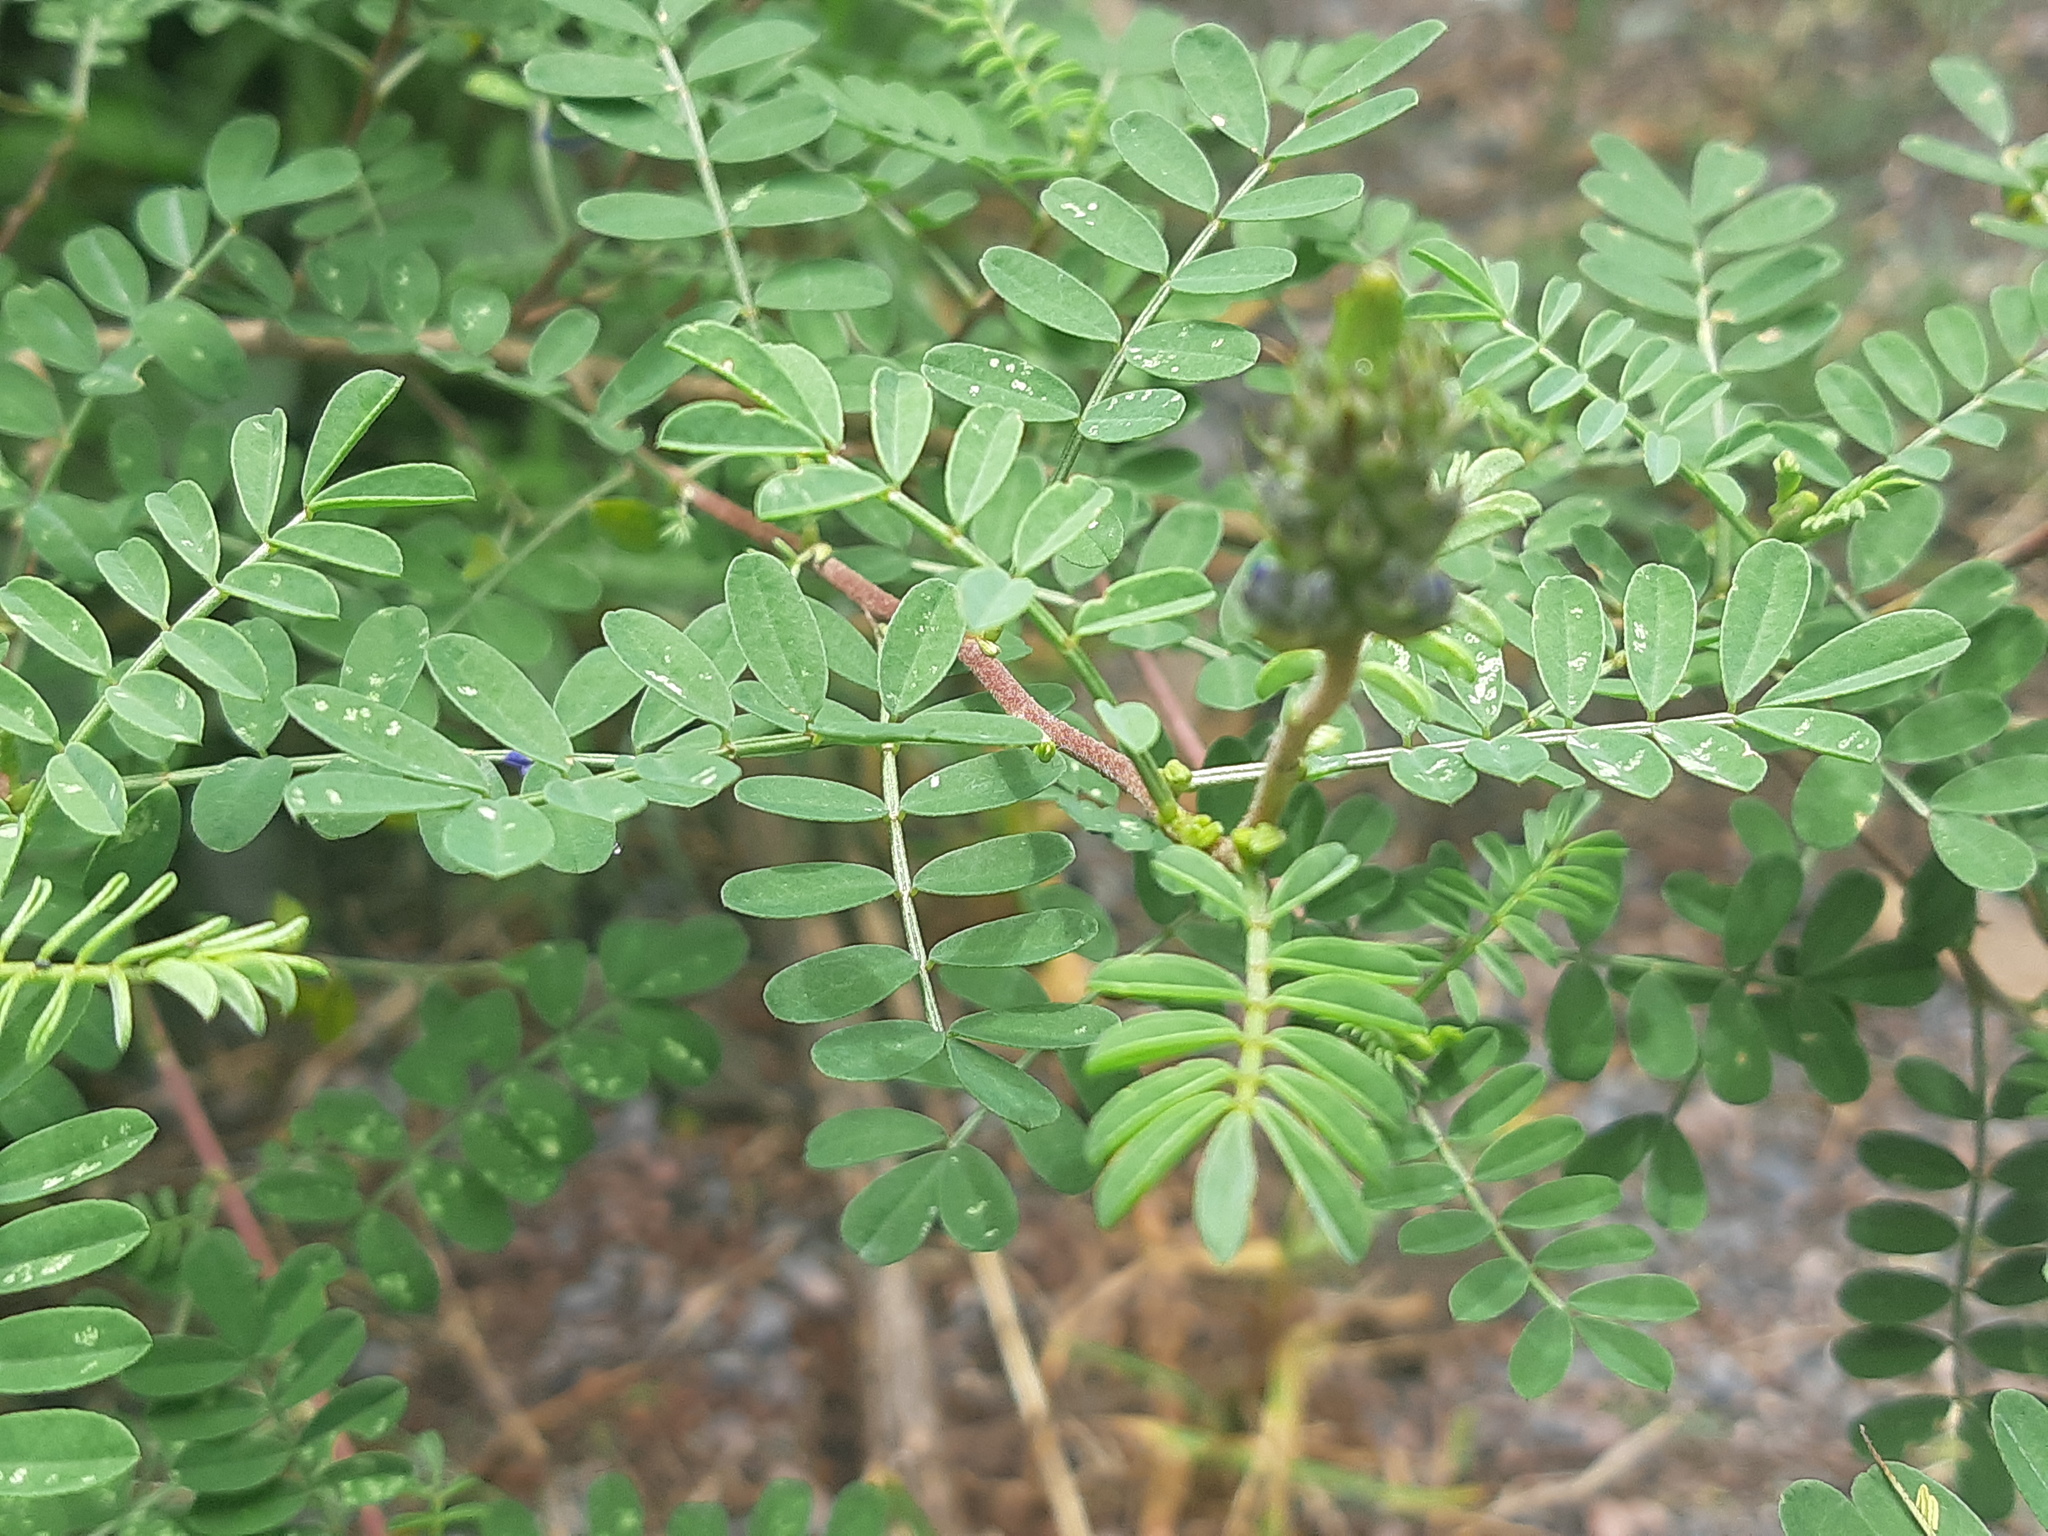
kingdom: Plantae
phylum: Tracheophyta
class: Magnoliopsida
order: Fabales
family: Fabaceae
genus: Dalea
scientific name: Dalea coerulea
